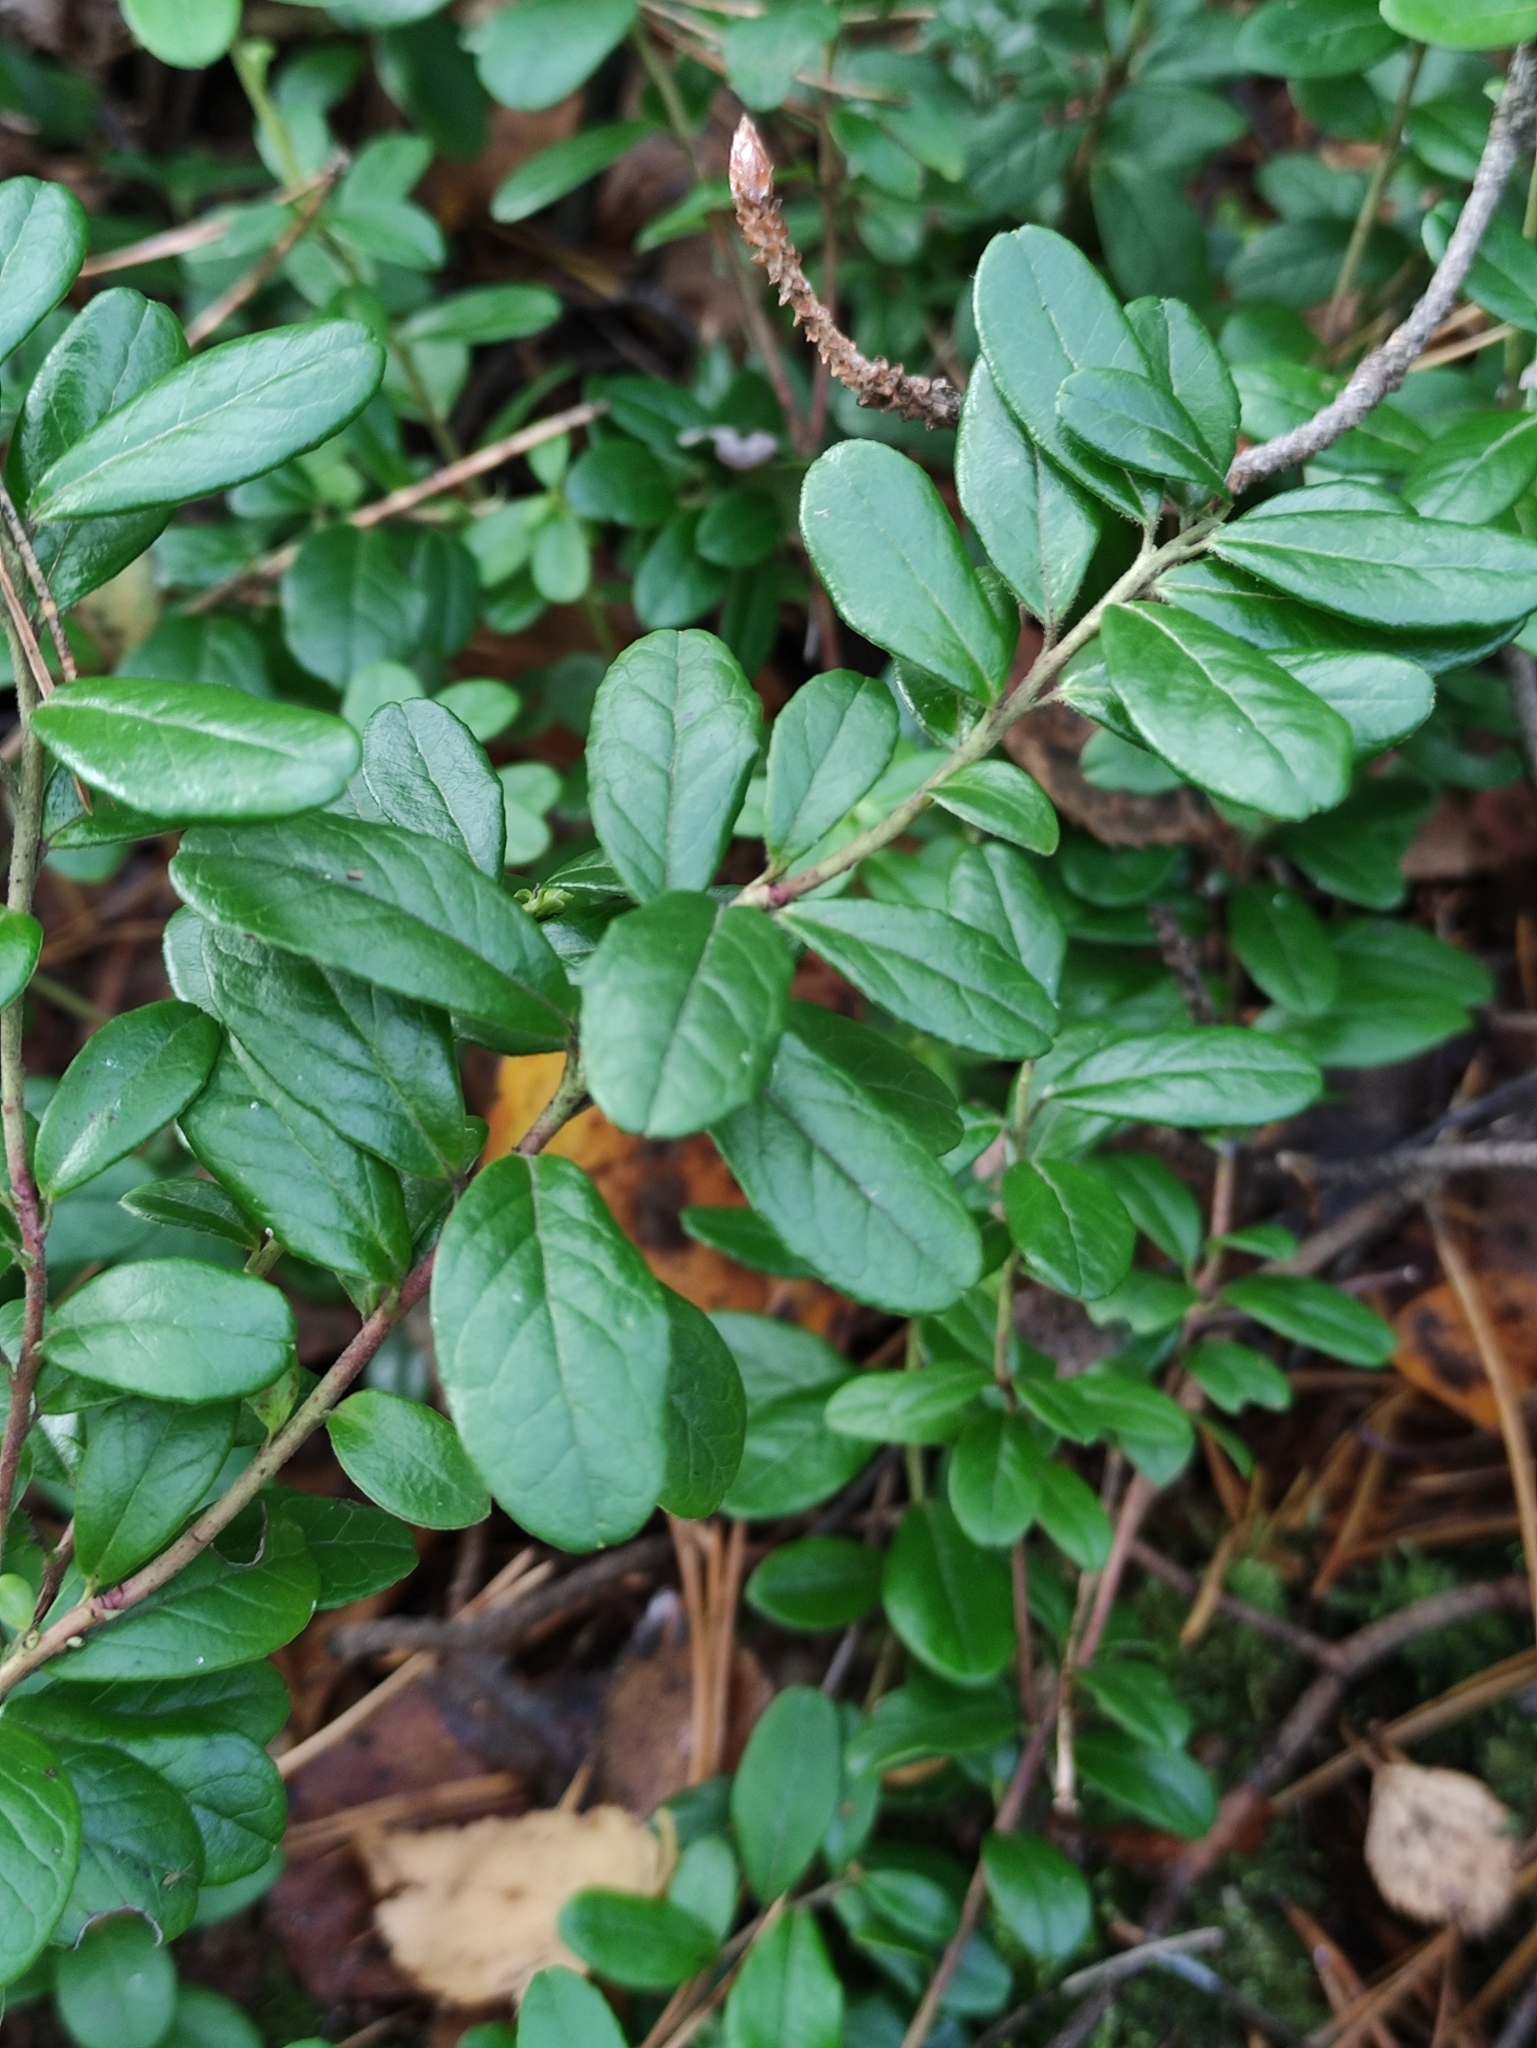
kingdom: Plantae
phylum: Tracheophyta
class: Magnoliopsida
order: Ericales
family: Ericaceae
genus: Vaccinium
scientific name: Vaccinium vitis-idaea
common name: Cowberry
